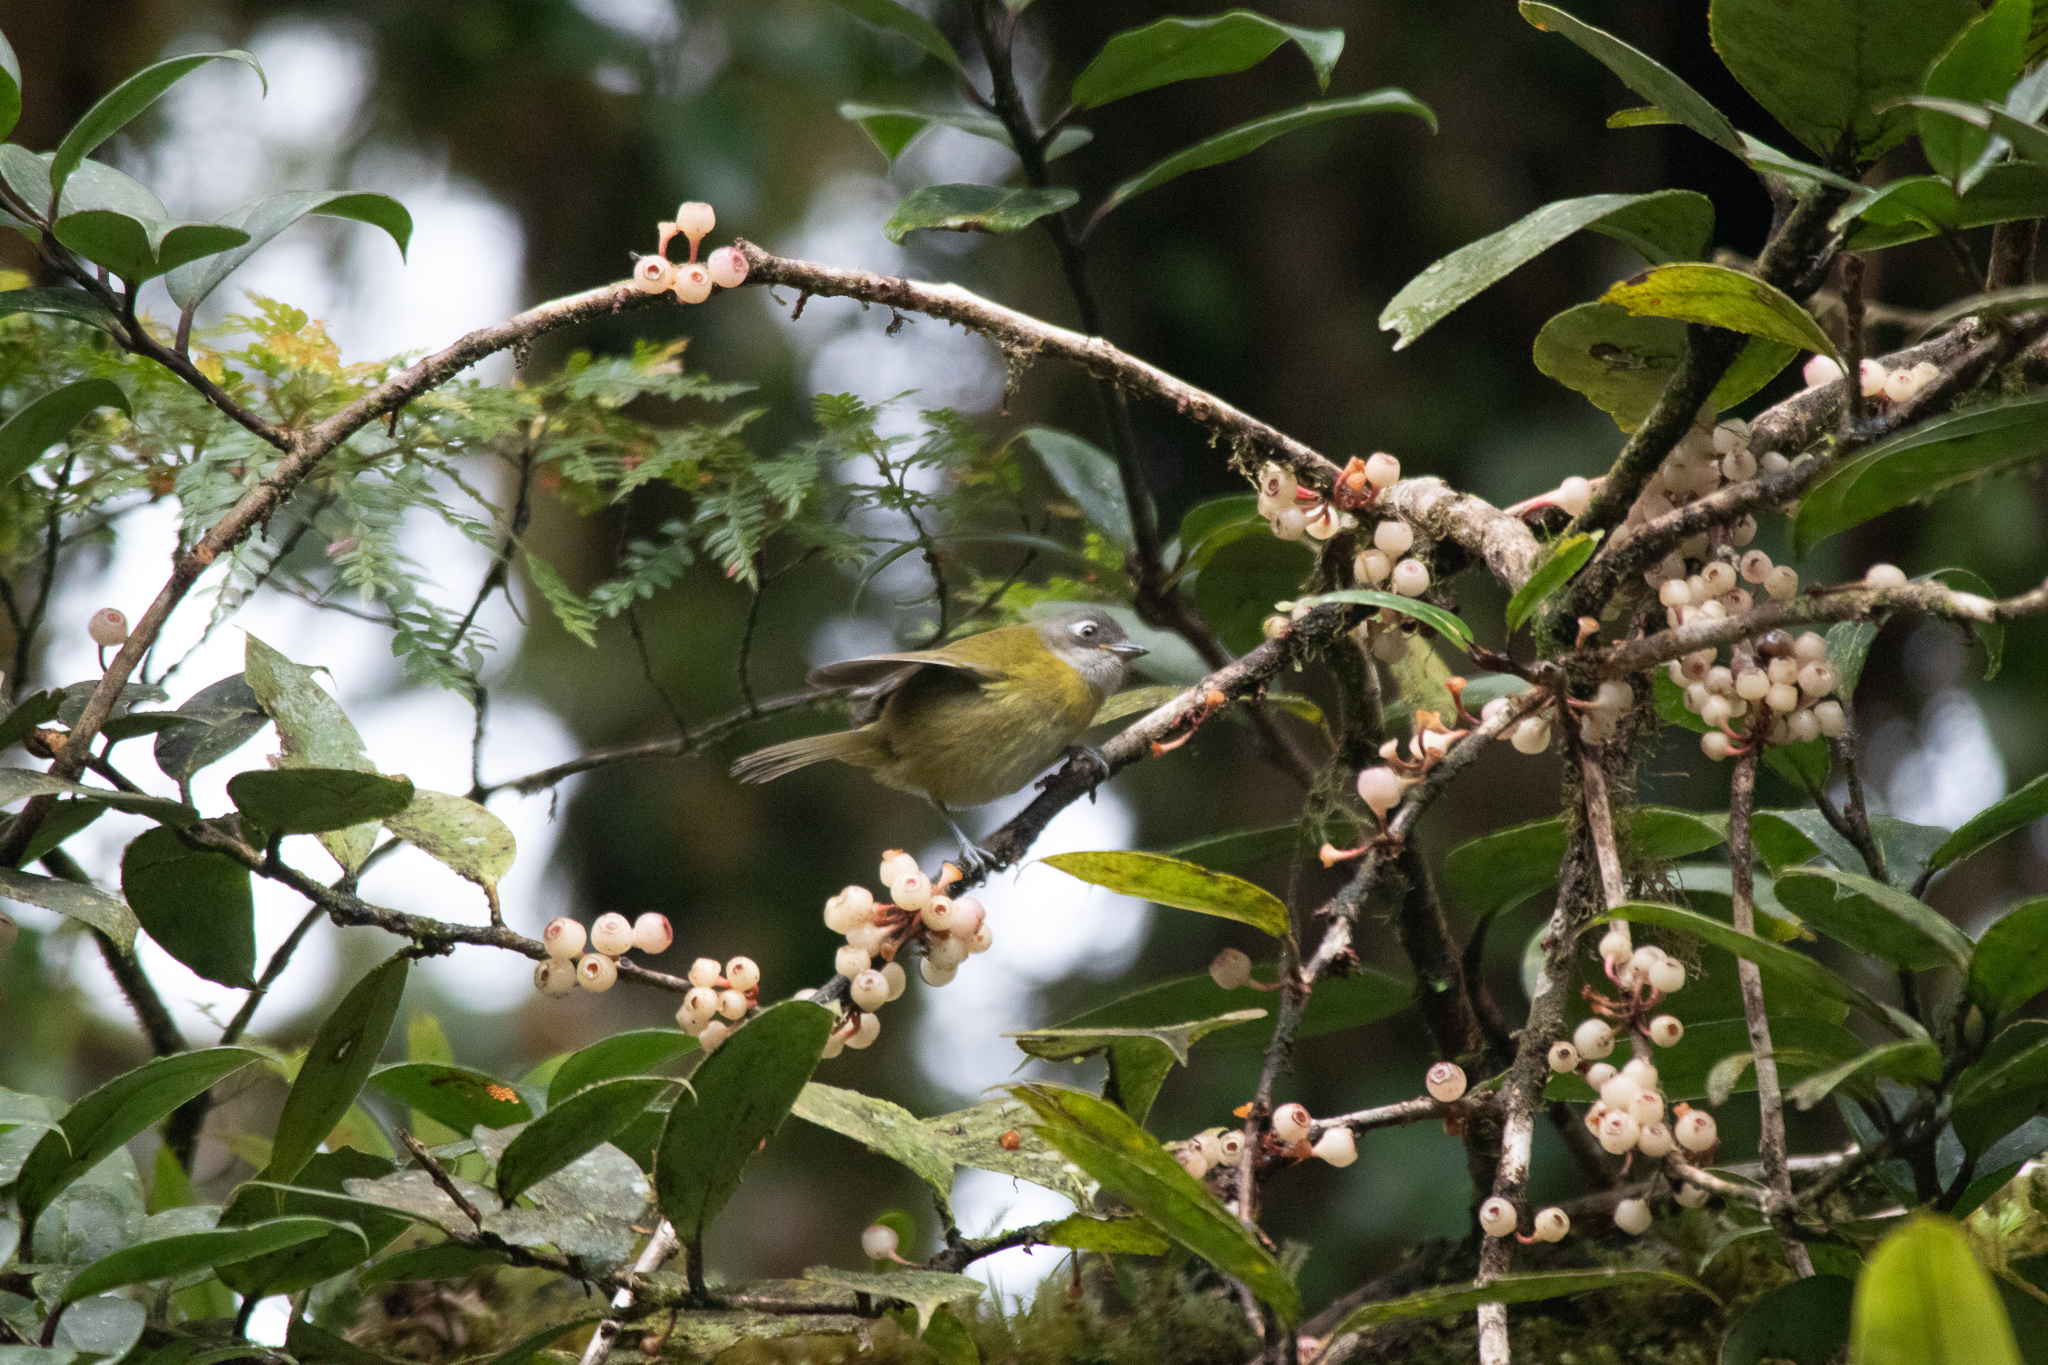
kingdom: Animalia
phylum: Chordata
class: Aves
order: Passeriformes
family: Passerellidae
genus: Chlorospingus
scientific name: Chlorospingus flavopectus
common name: Common chlorospingus
